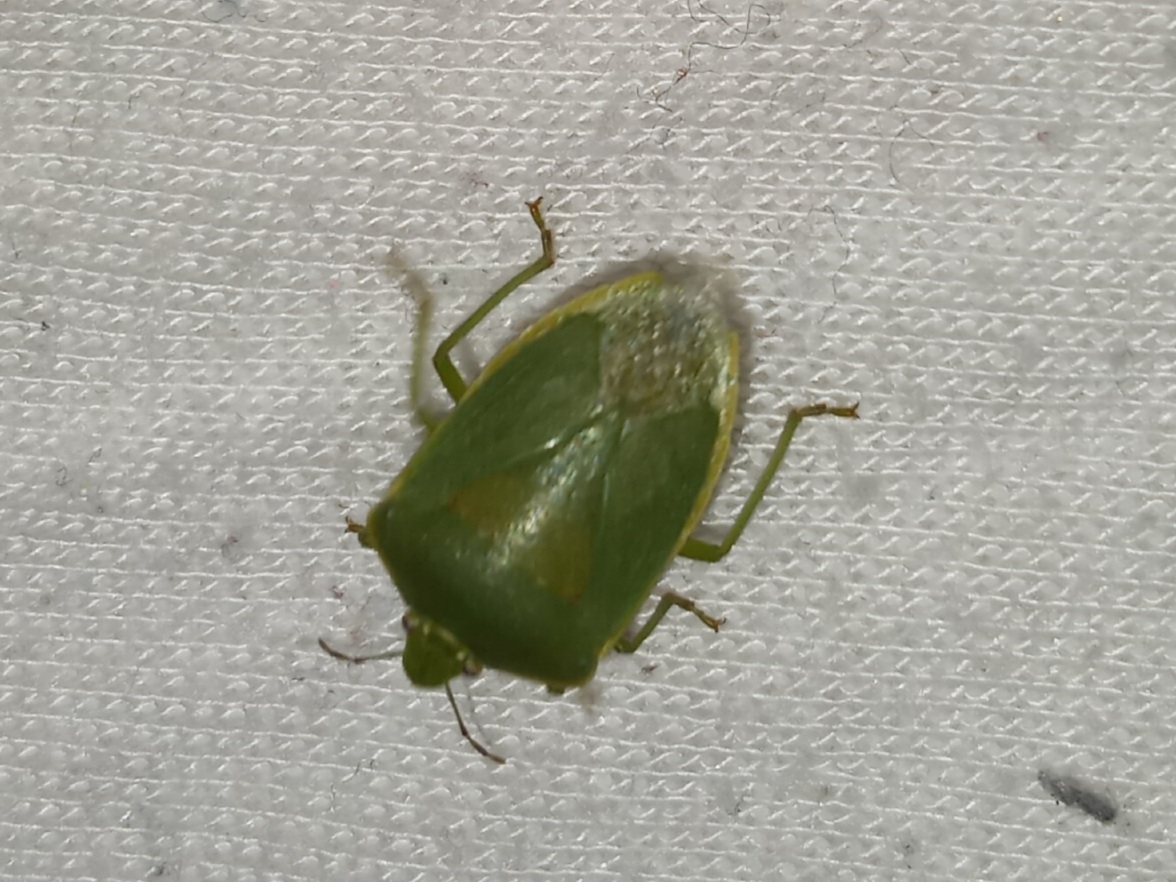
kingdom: Animalia
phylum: Arthropoda
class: Insecta
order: Hemiptera
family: Pentatomidae
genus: Chinavia
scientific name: Chinavia hilaris
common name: Green stink bug
